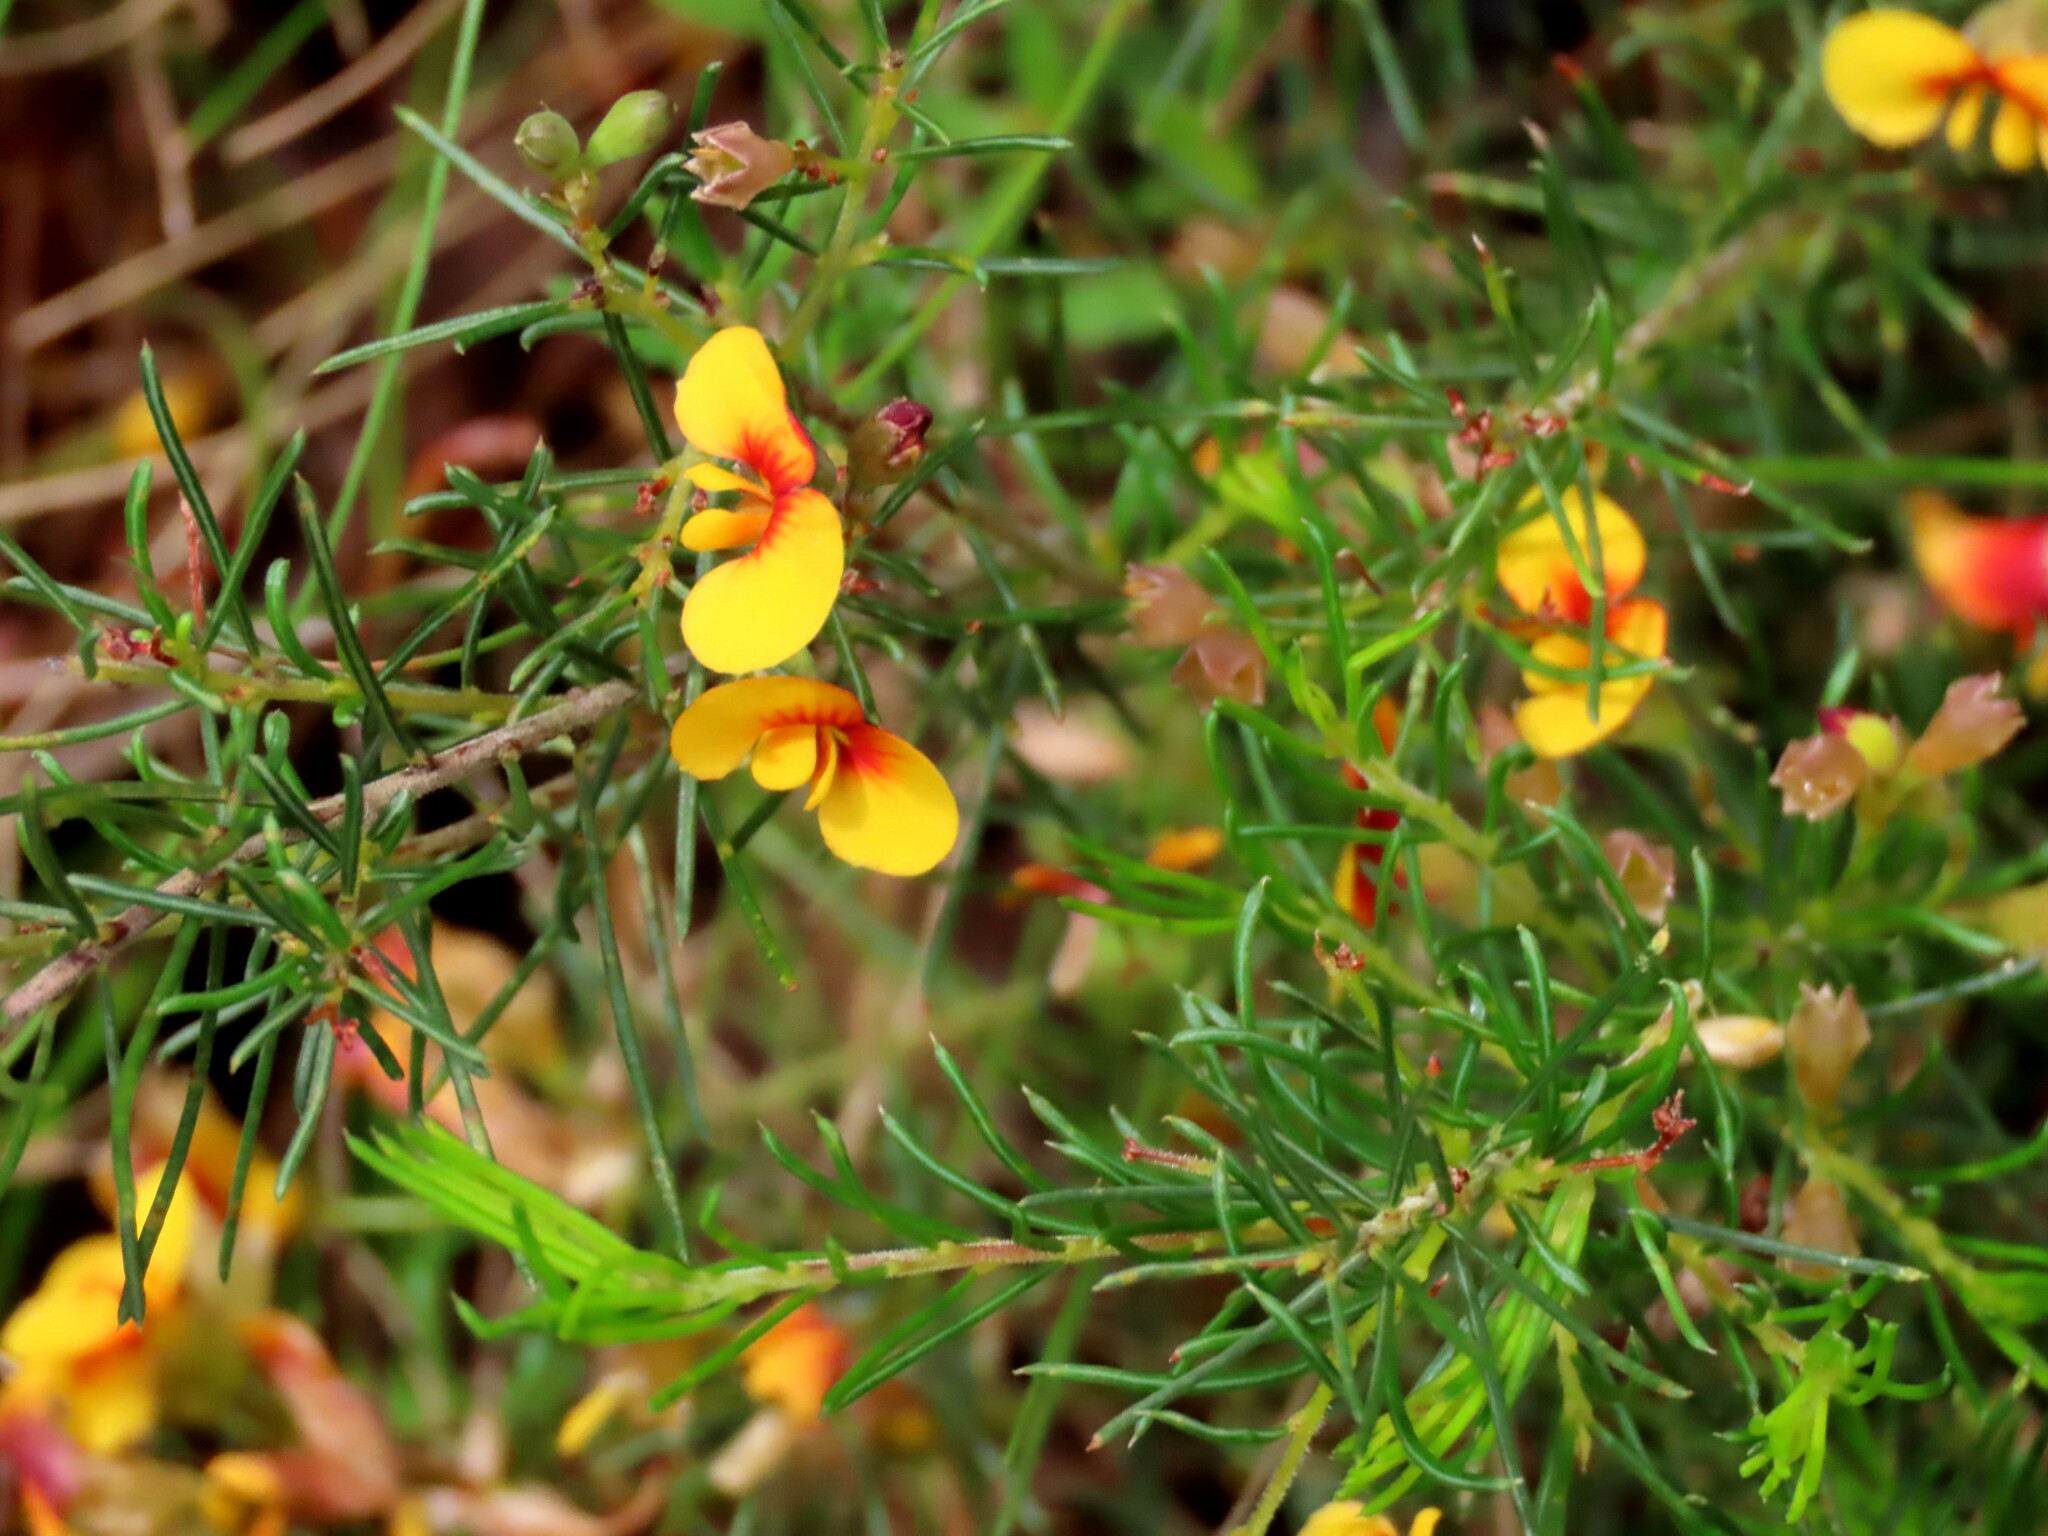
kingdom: Plantae
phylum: Tracheophyta
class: Magnoliopsida
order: Fabales
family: Fabaceae
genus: Dillwynia
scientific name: Dillwynia glaberrima
